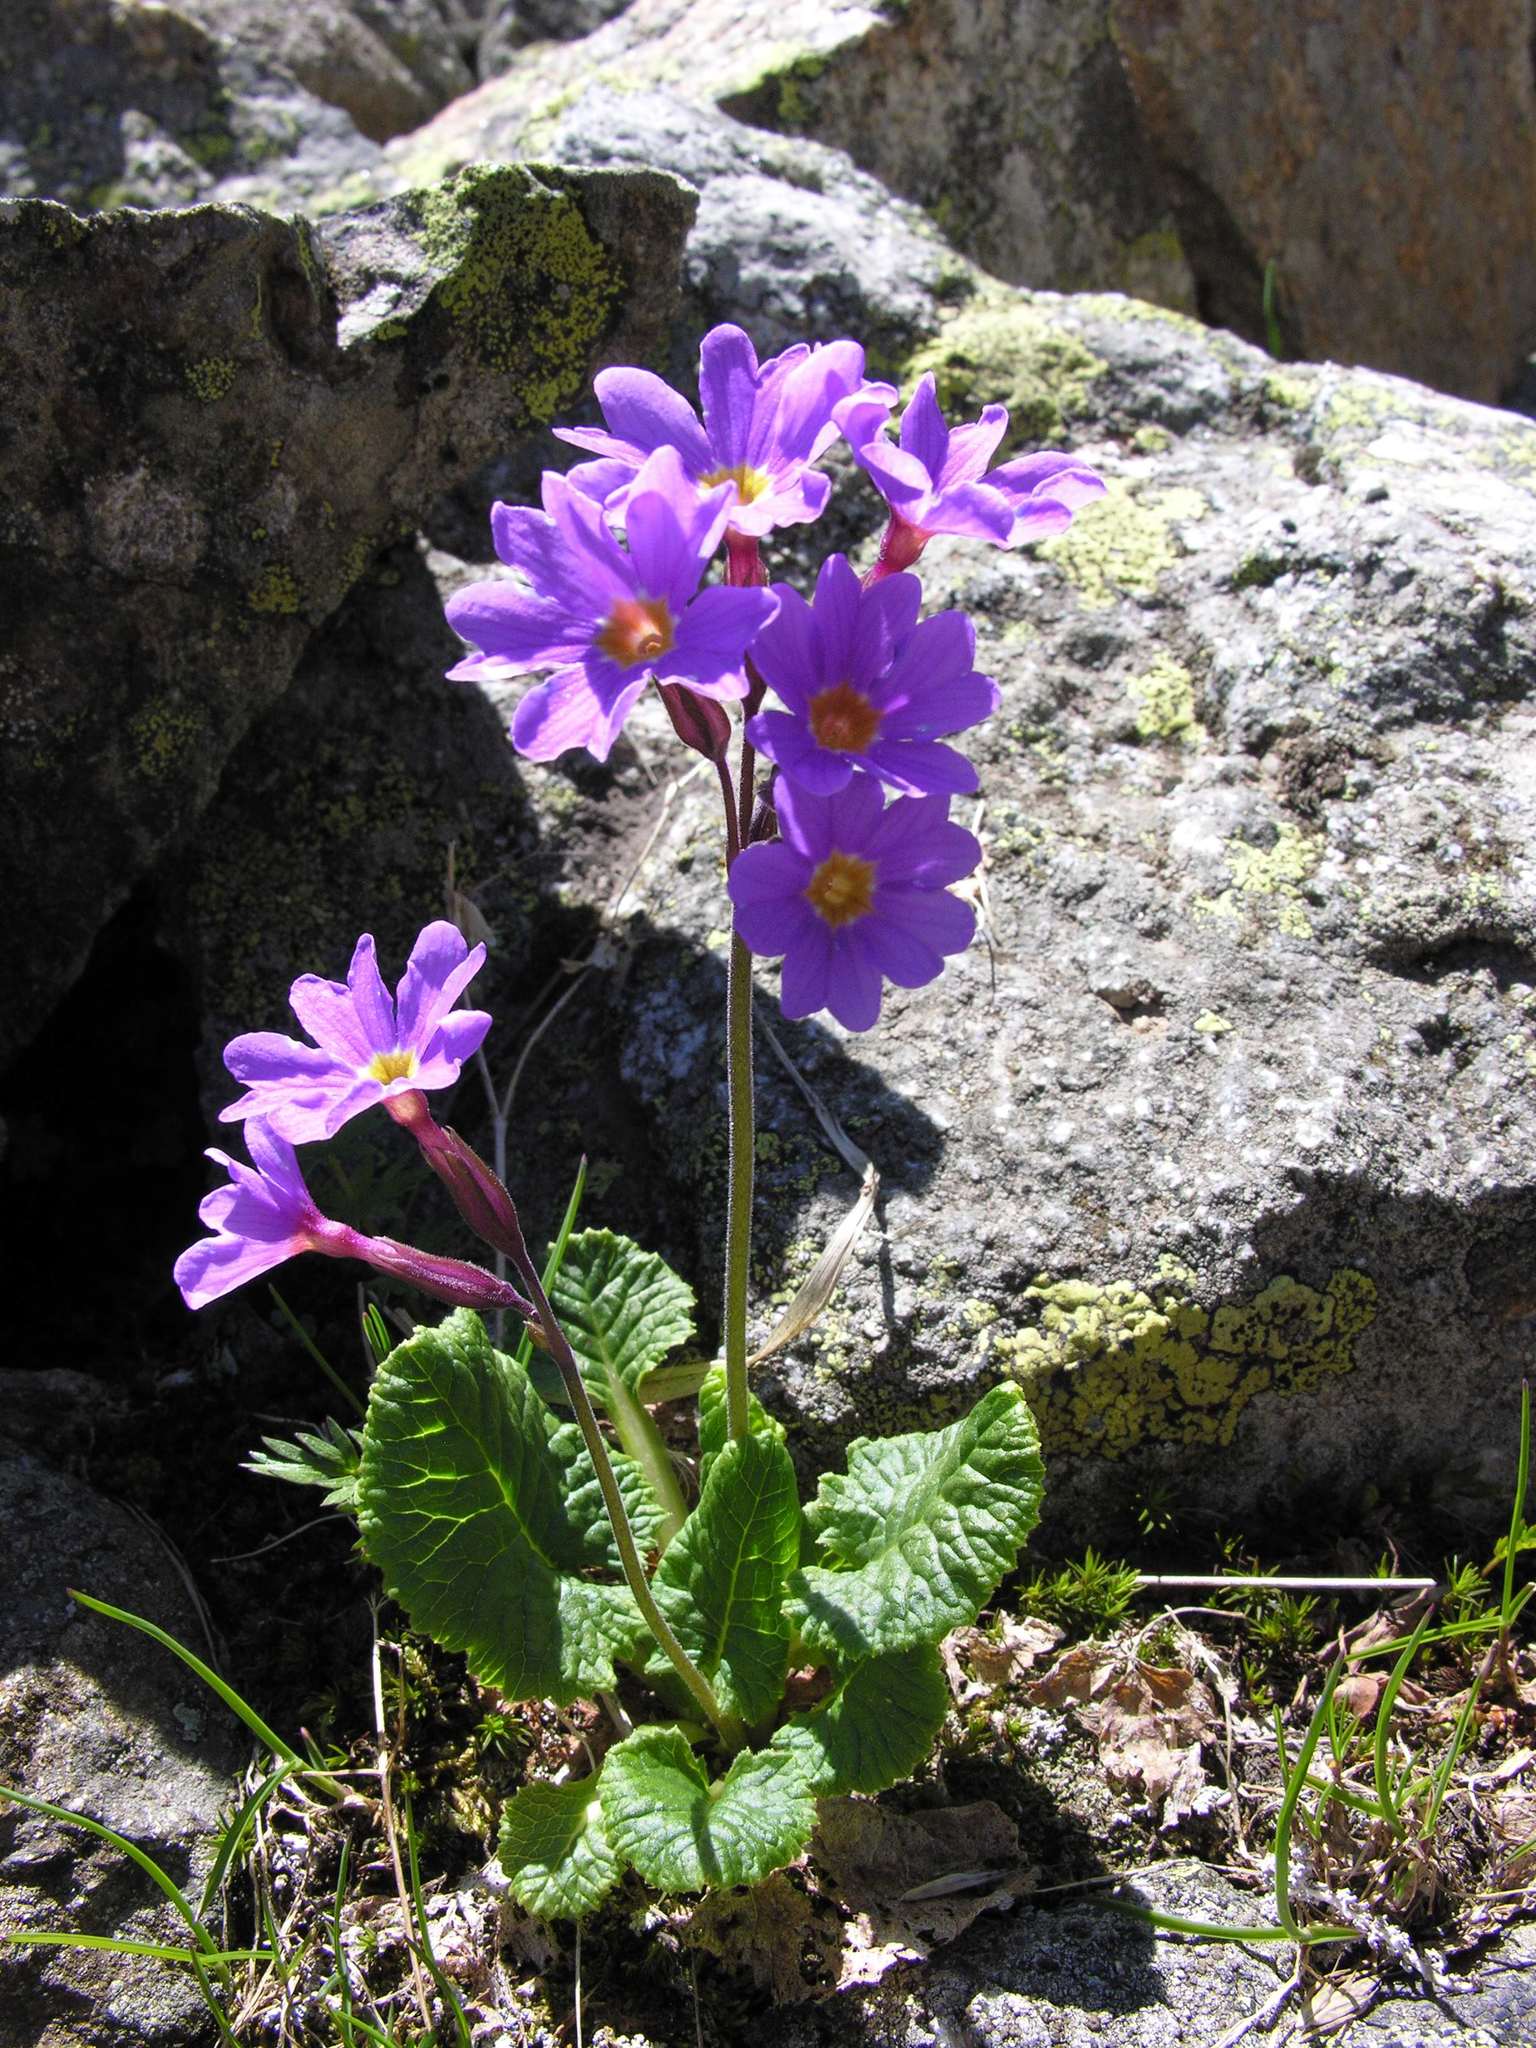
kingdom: Plantae
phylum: Tracheophyta
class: Magnoliopsida
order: Ericales
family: Primulaceae
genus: Primula
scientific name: Primula amoena
